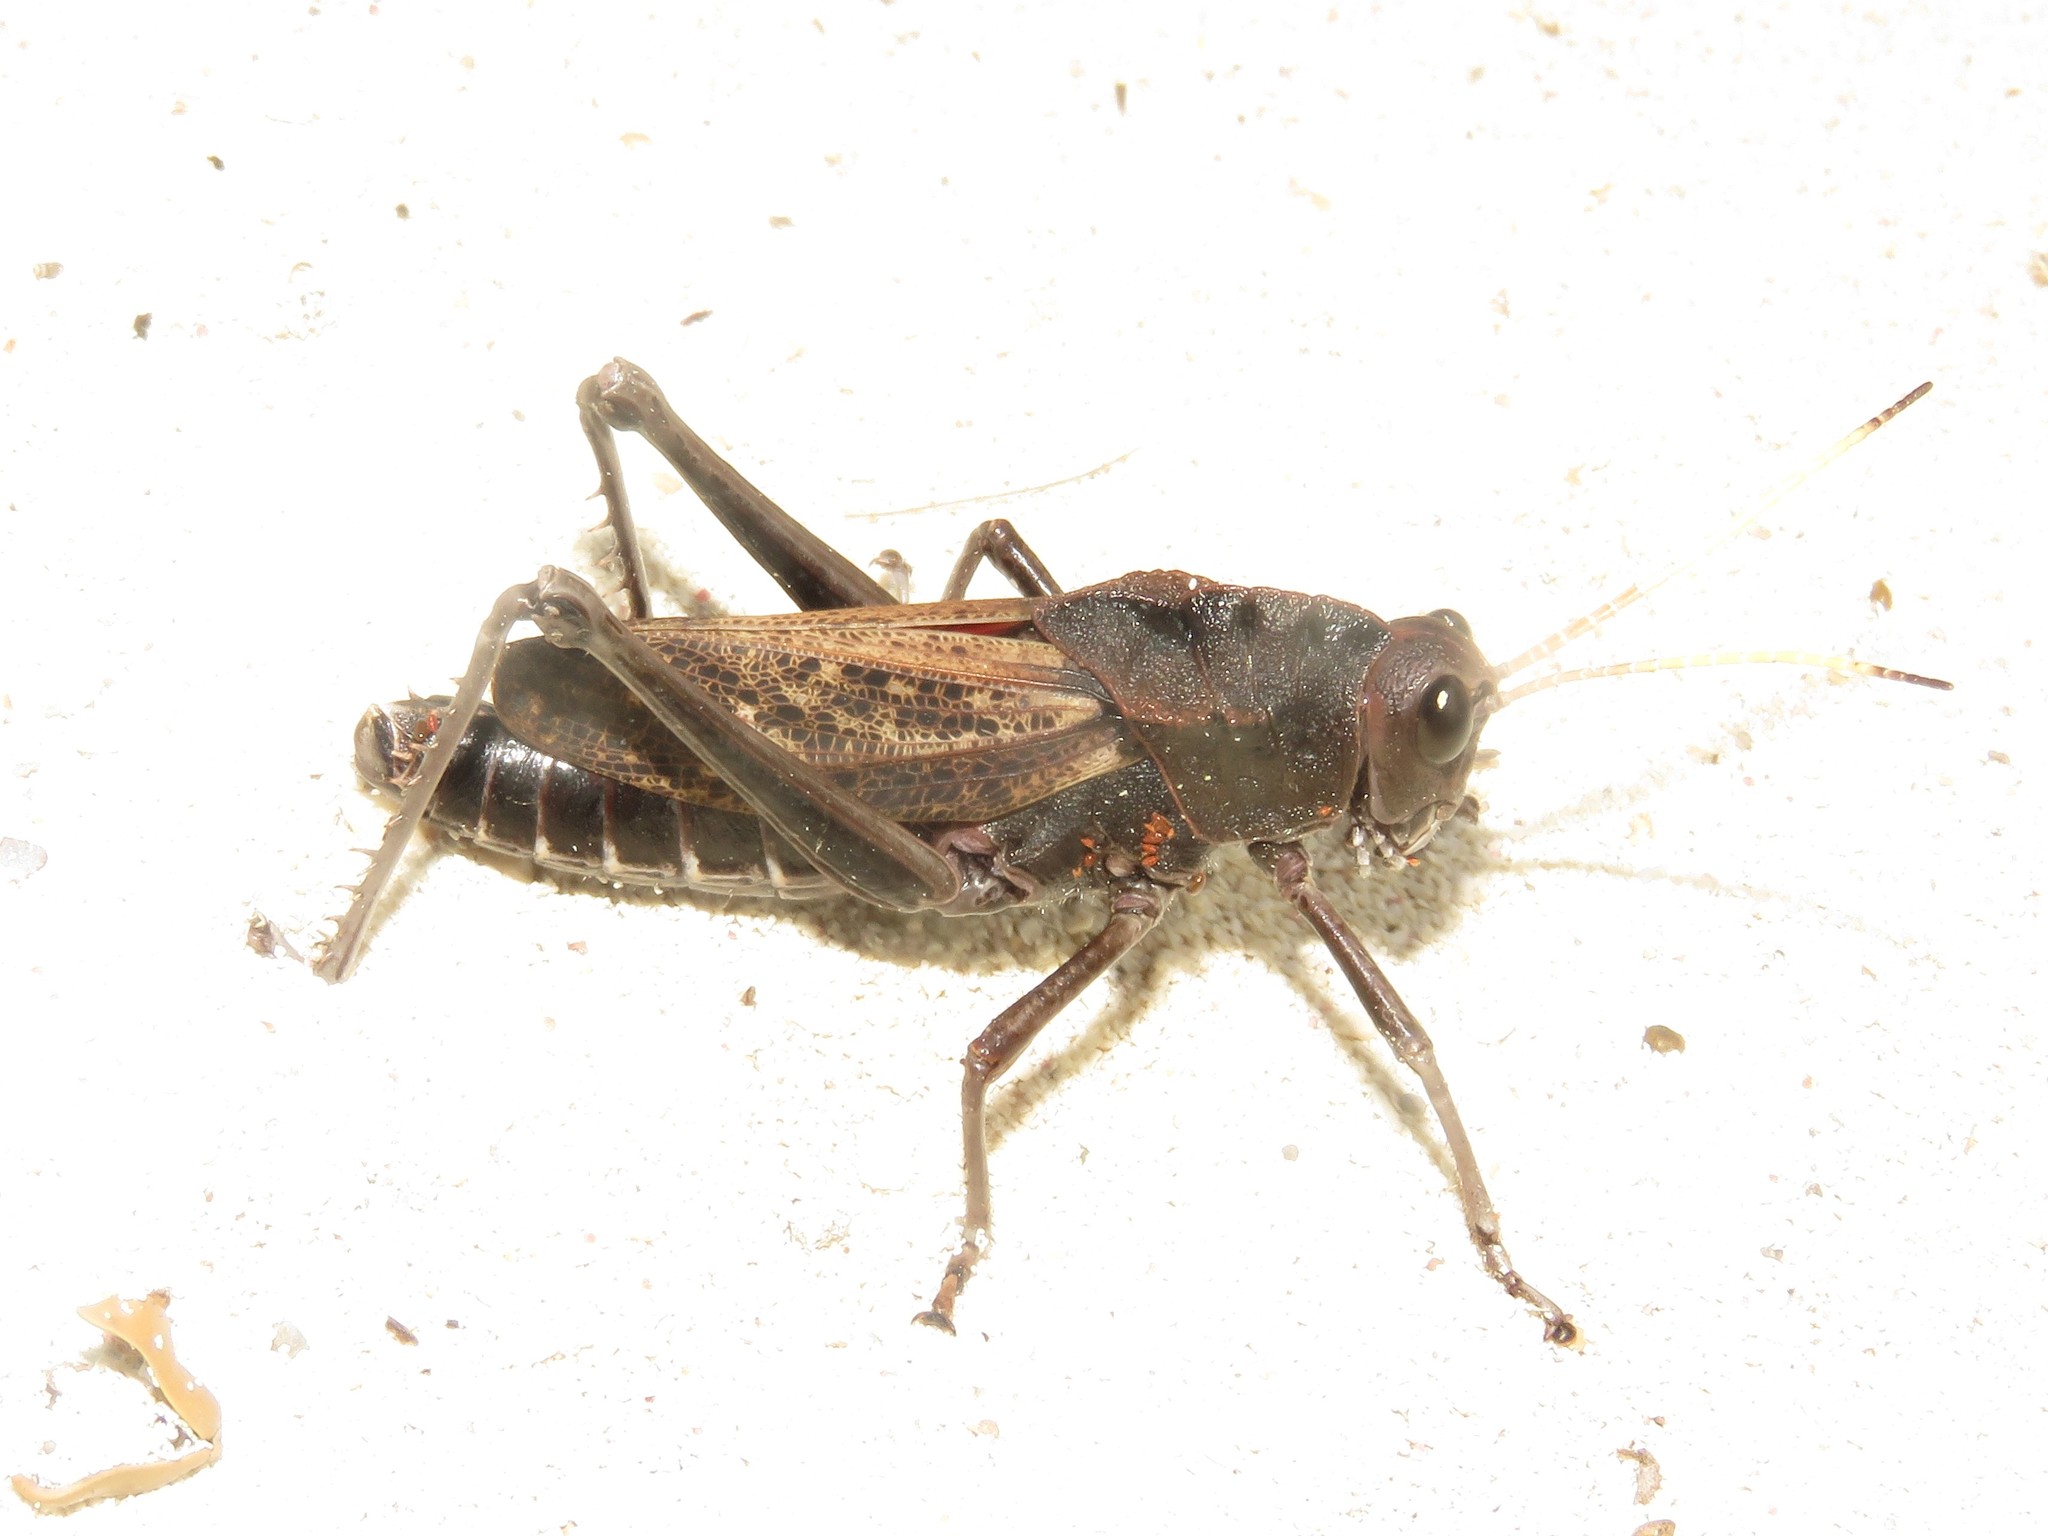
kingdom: Animalia
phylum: Arthropoda
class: Insecta
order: Orthoptera
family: Romaleidae
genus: Romalea
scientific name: Romalea
